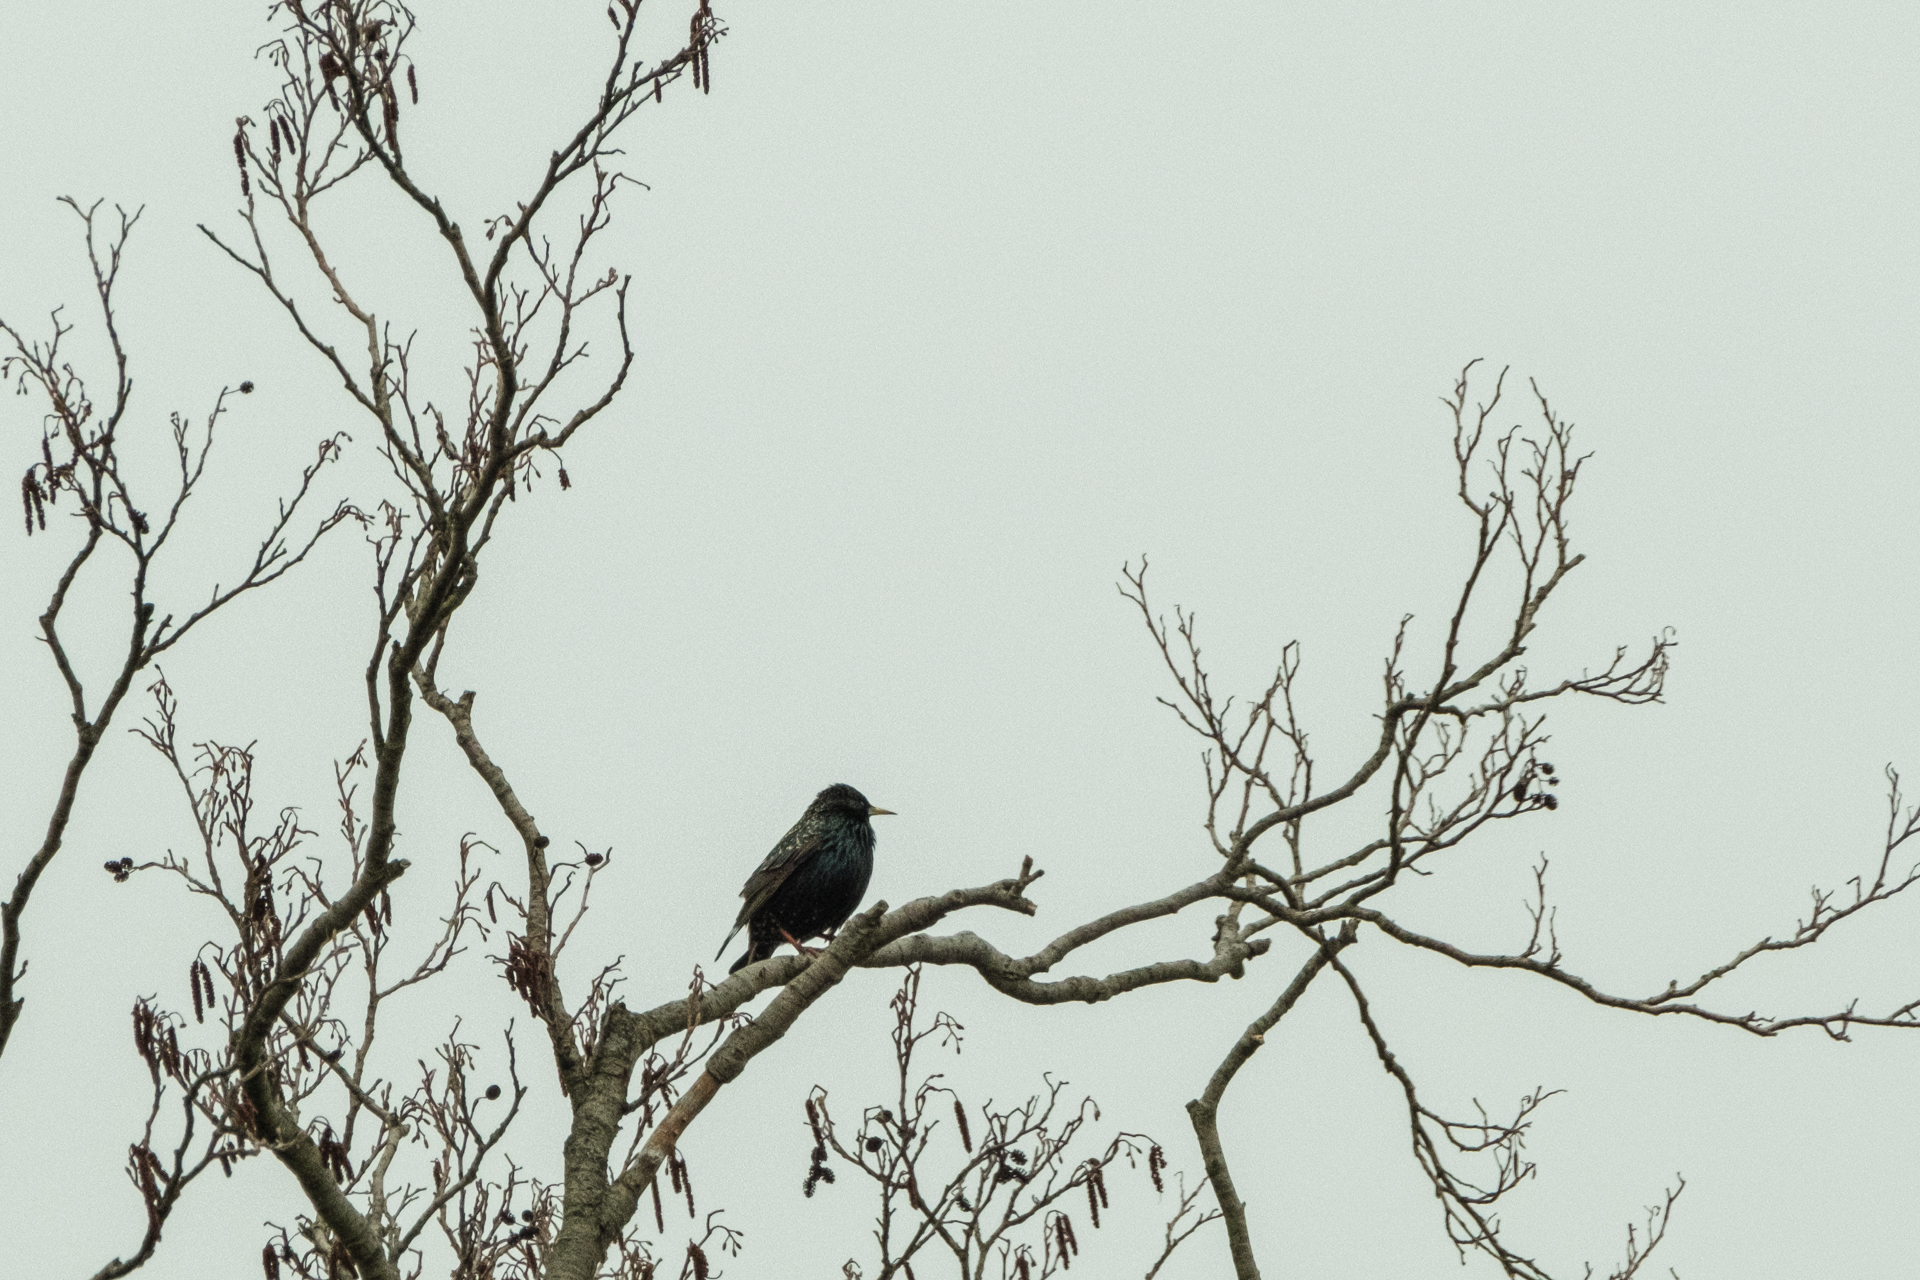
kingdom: Animalia
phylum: Chordata
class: Aves
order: Passeriformes
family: Sturnidae
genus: Sturnus
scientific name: Sturnus vulgaris
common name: Common starling
